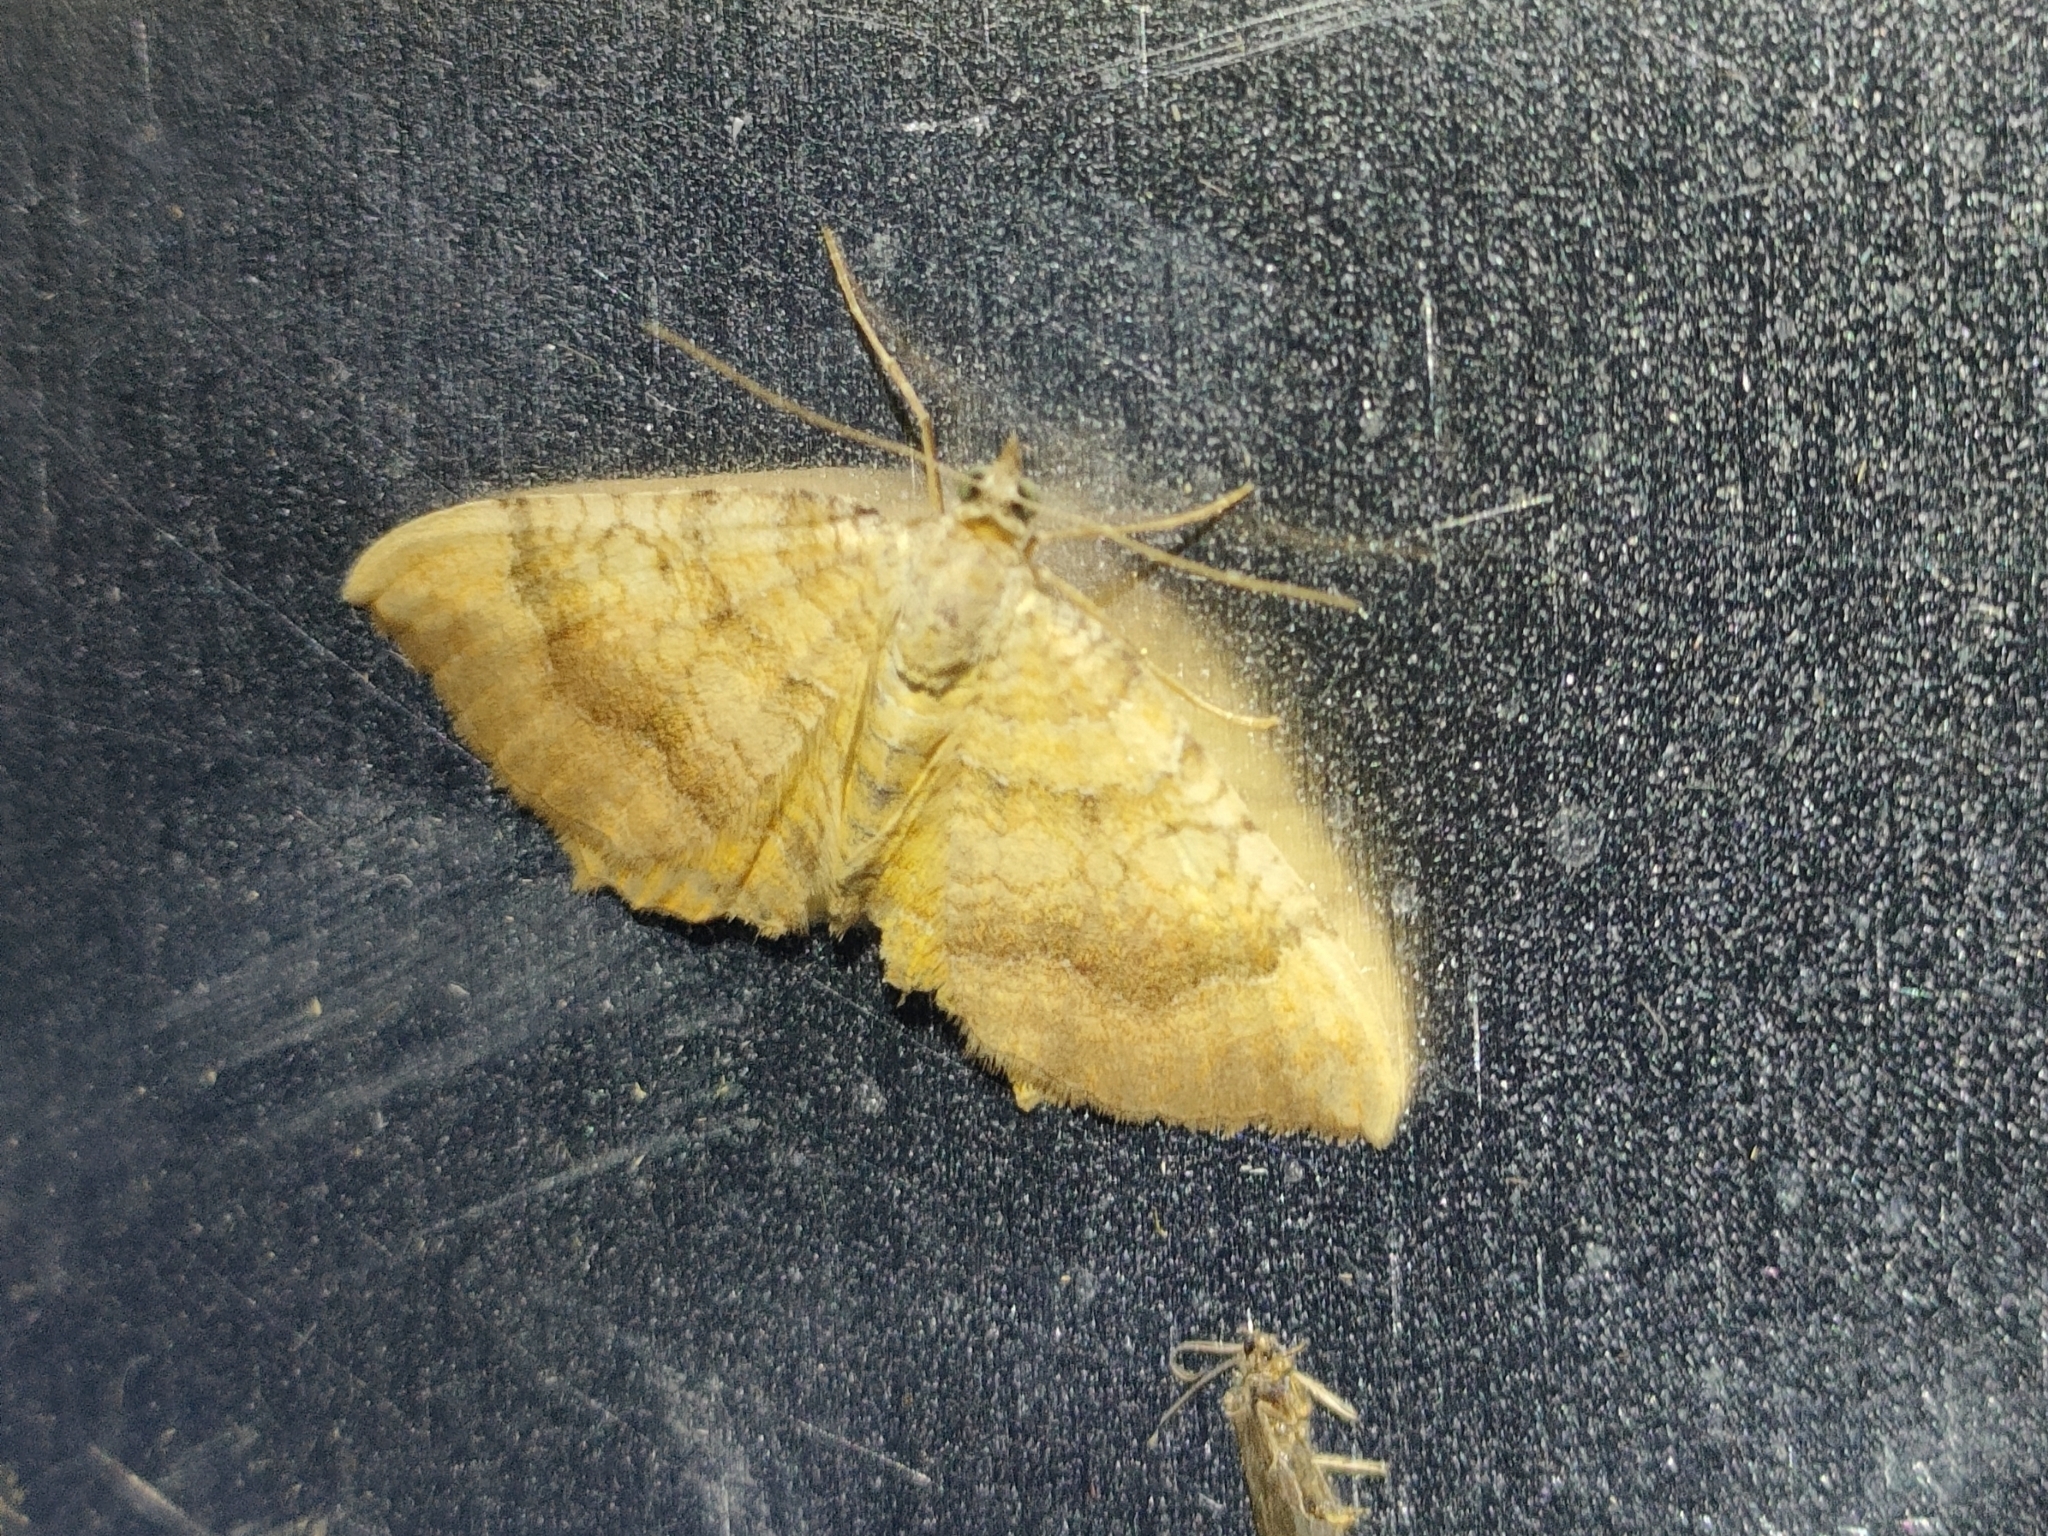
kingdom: Animalia
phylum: Arthropoda
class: Insecta
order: Lepidoptera
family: Geometridae
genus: Camptogramma
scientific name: Camptogramma bilineata
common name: Yellow shell
